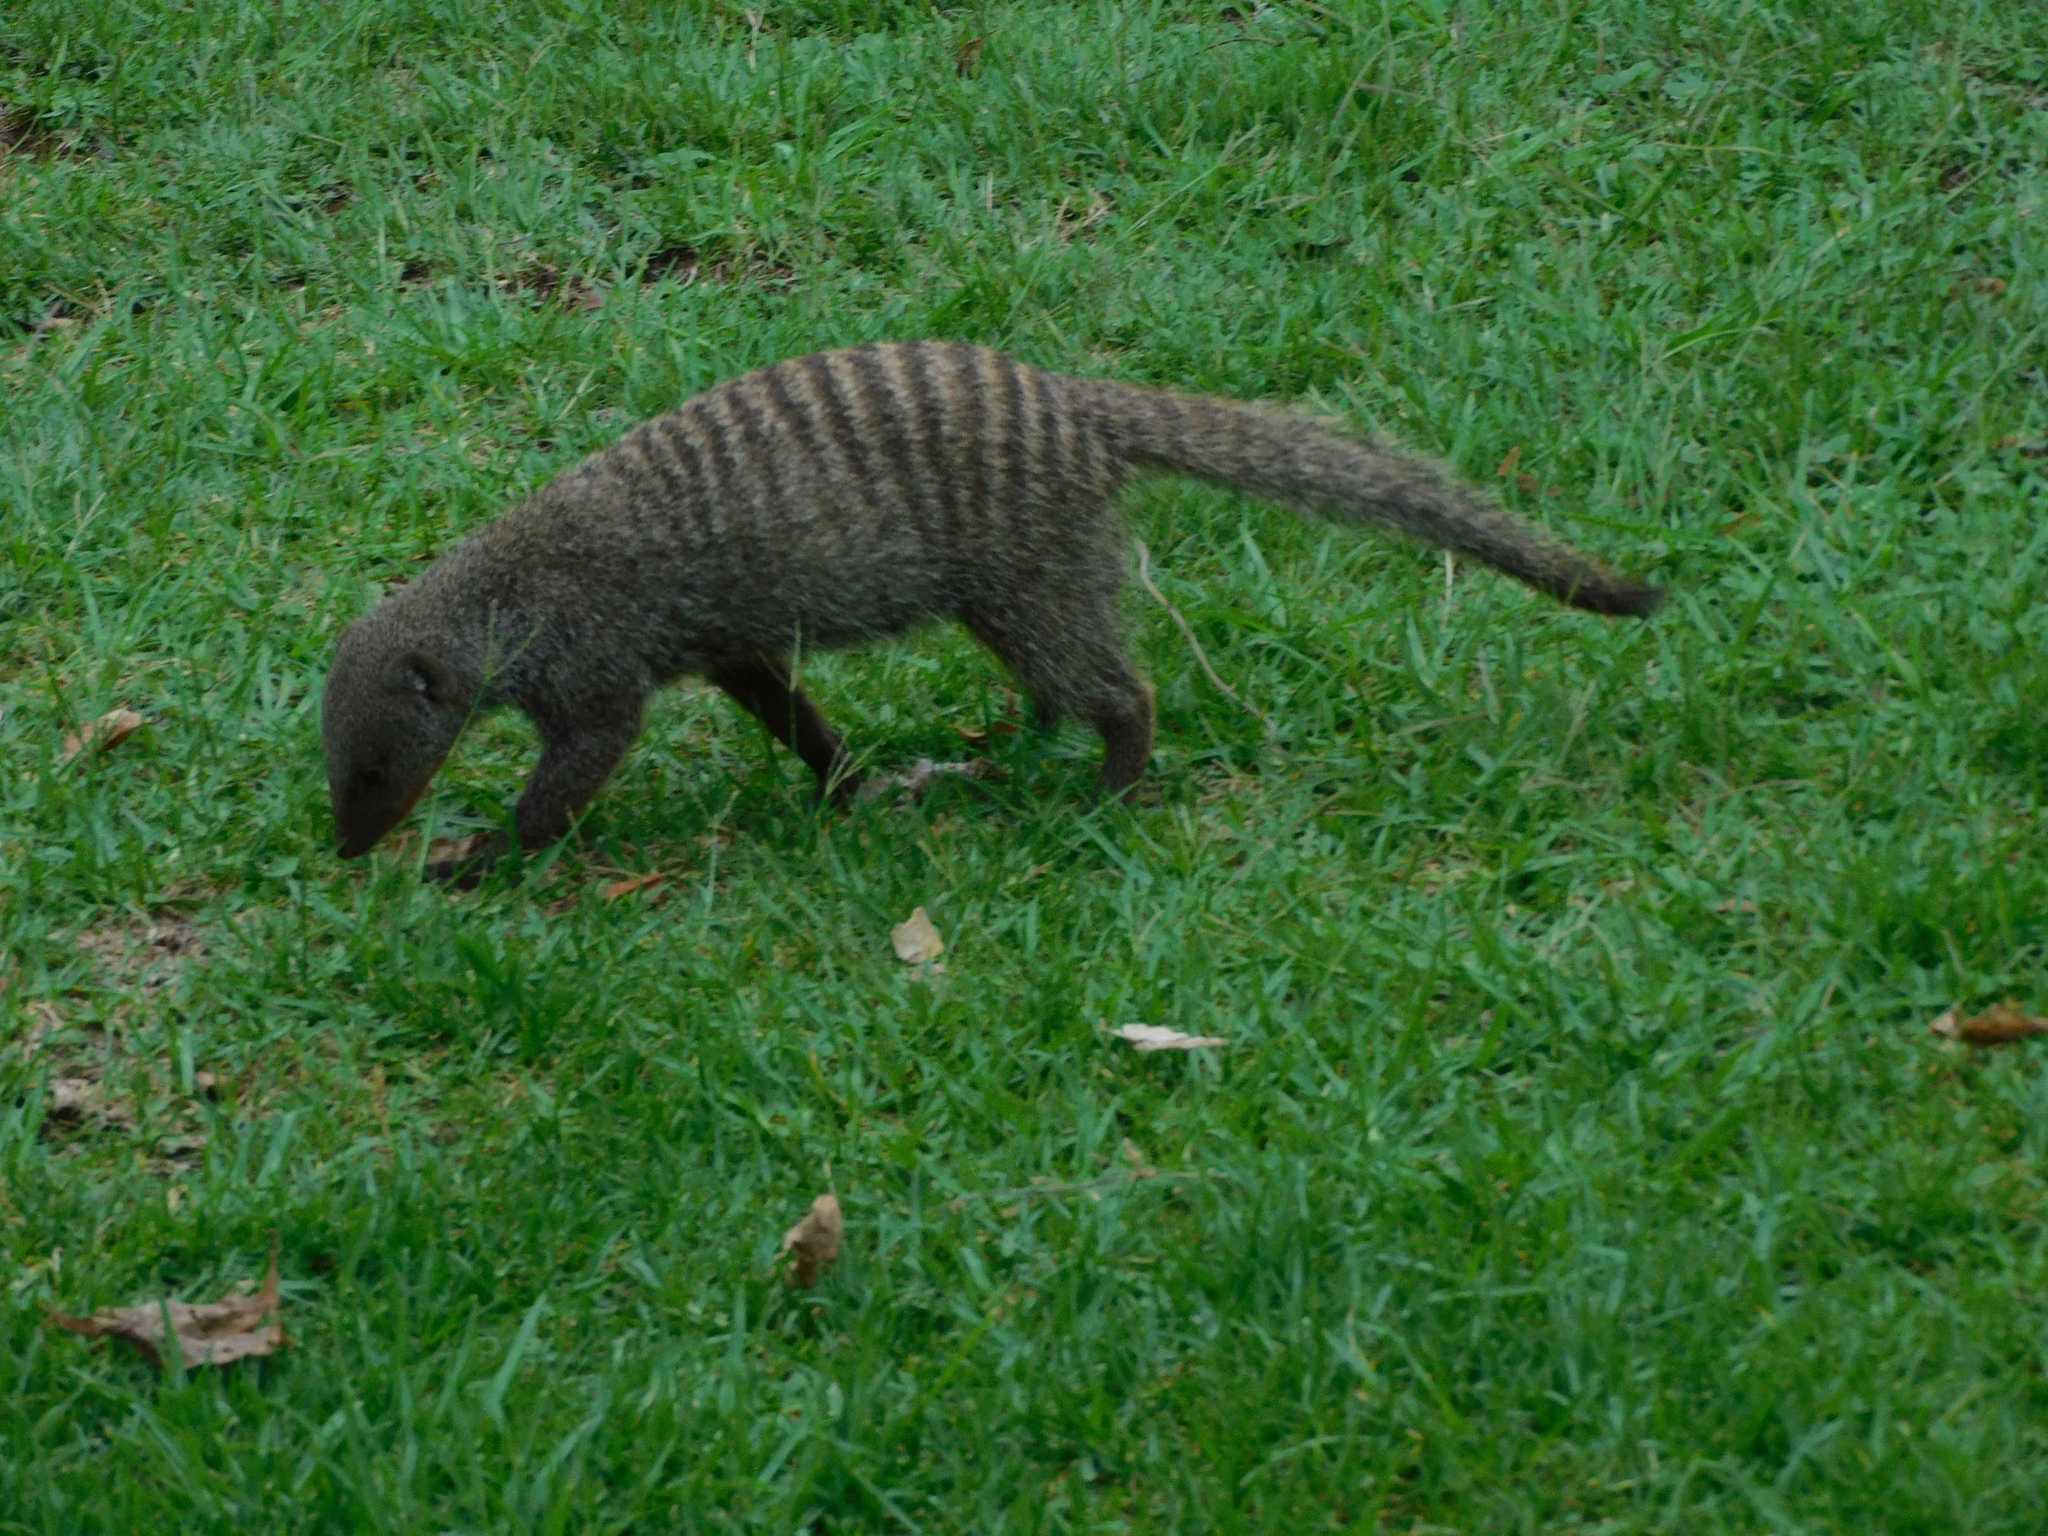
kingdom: Animalia
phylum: Chordata
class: Mammalia
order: Carnivora
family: Herpestidae
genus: Mungos
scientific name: Mungos mungo
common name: Banded mongoose
